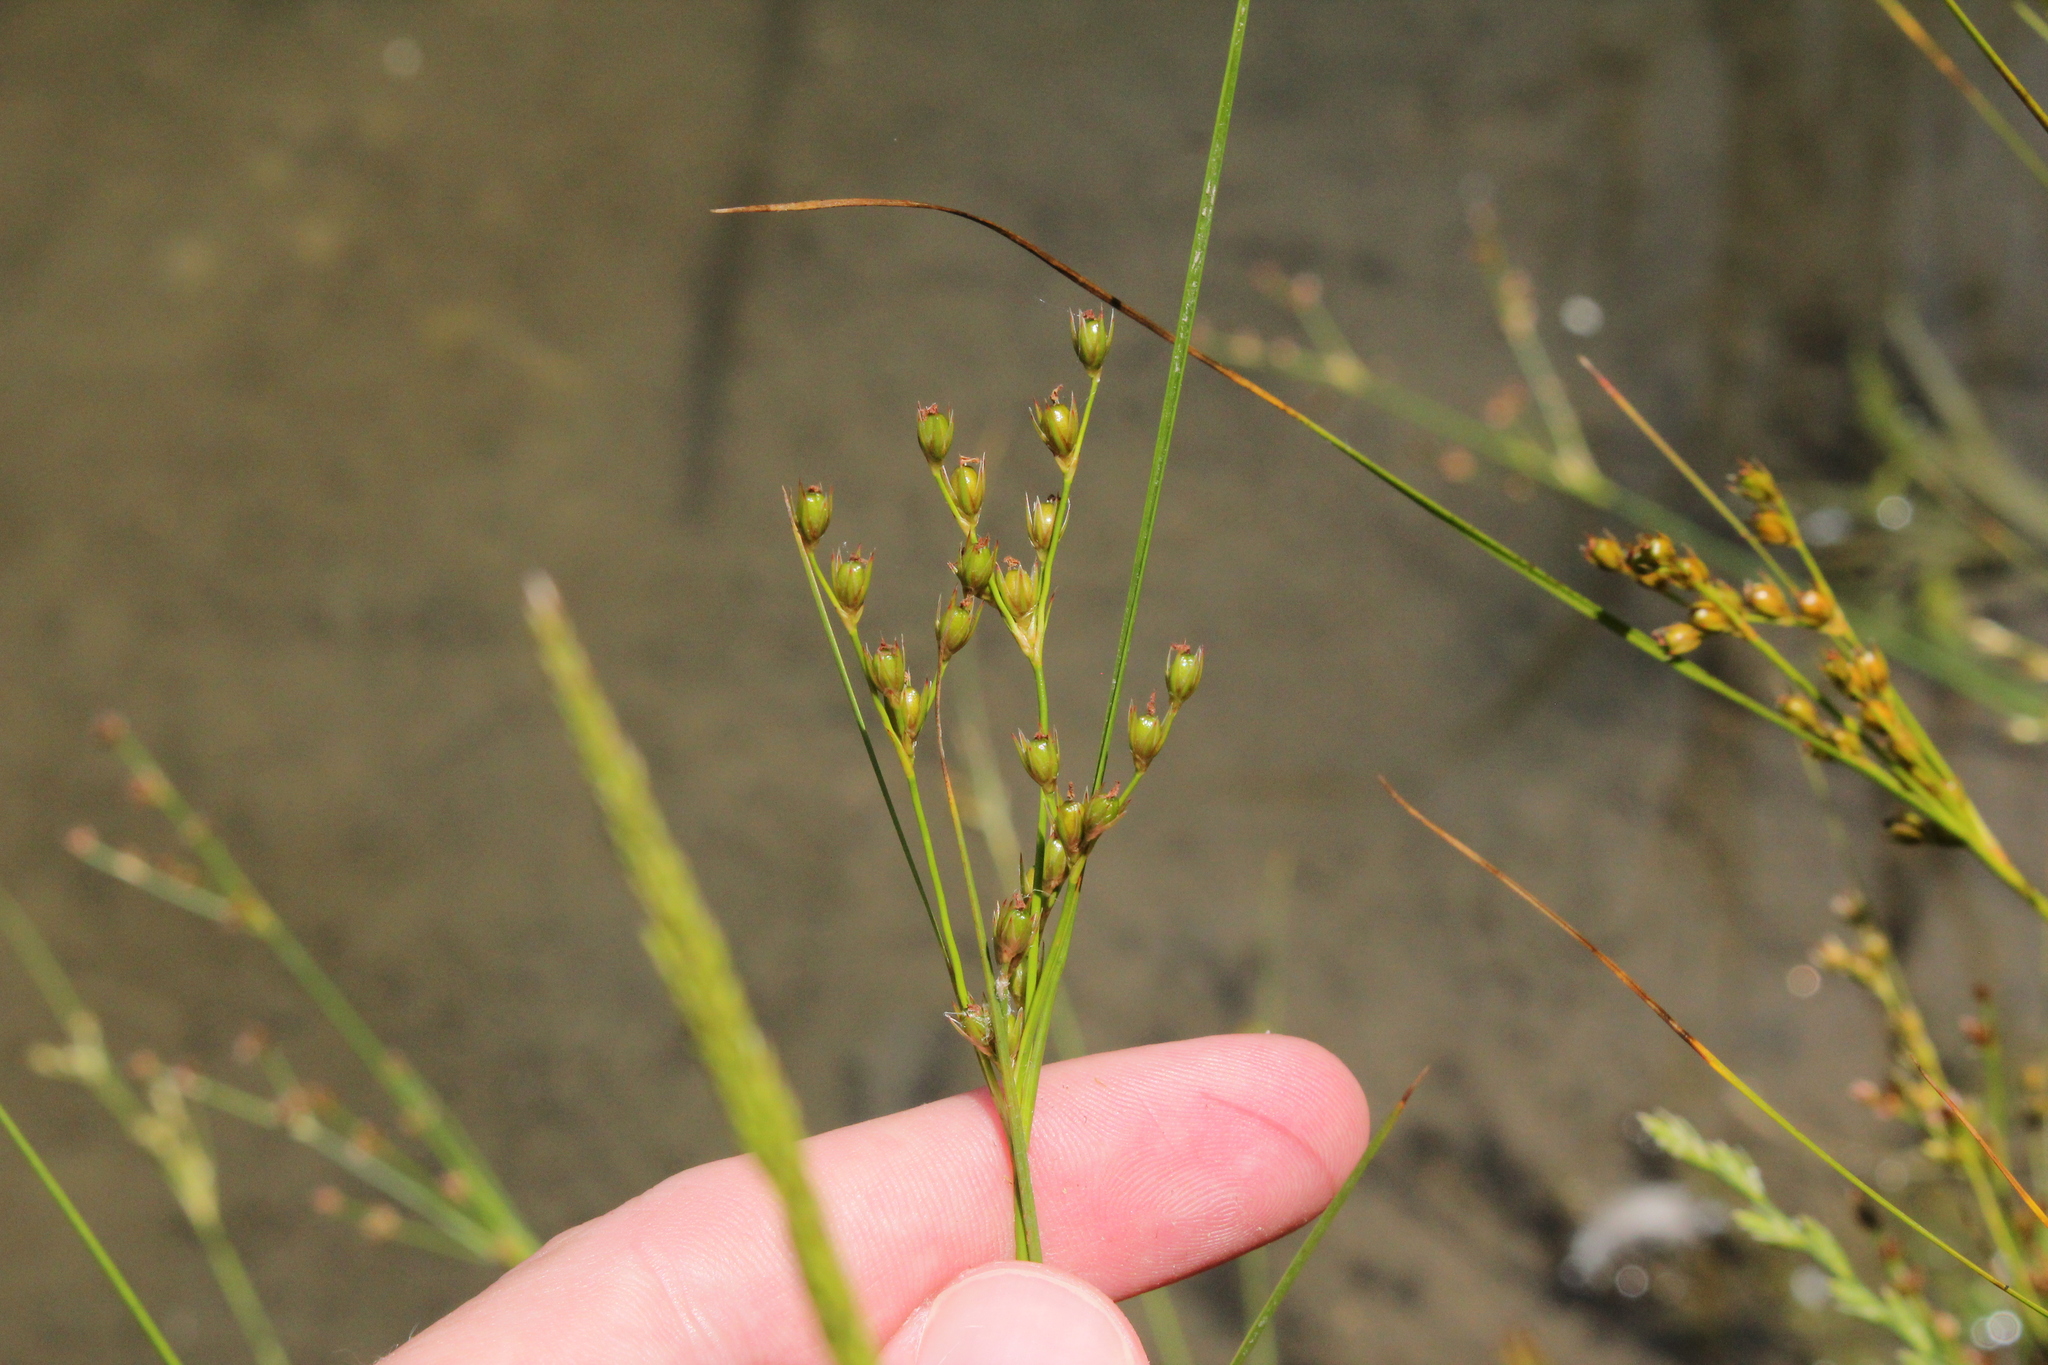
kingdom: Plantae
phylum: Tracheophyta
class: Liliopsida
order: Poales
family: Juncaceae
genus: Juncus
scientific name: Juncus tenuis
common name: Slender rush
